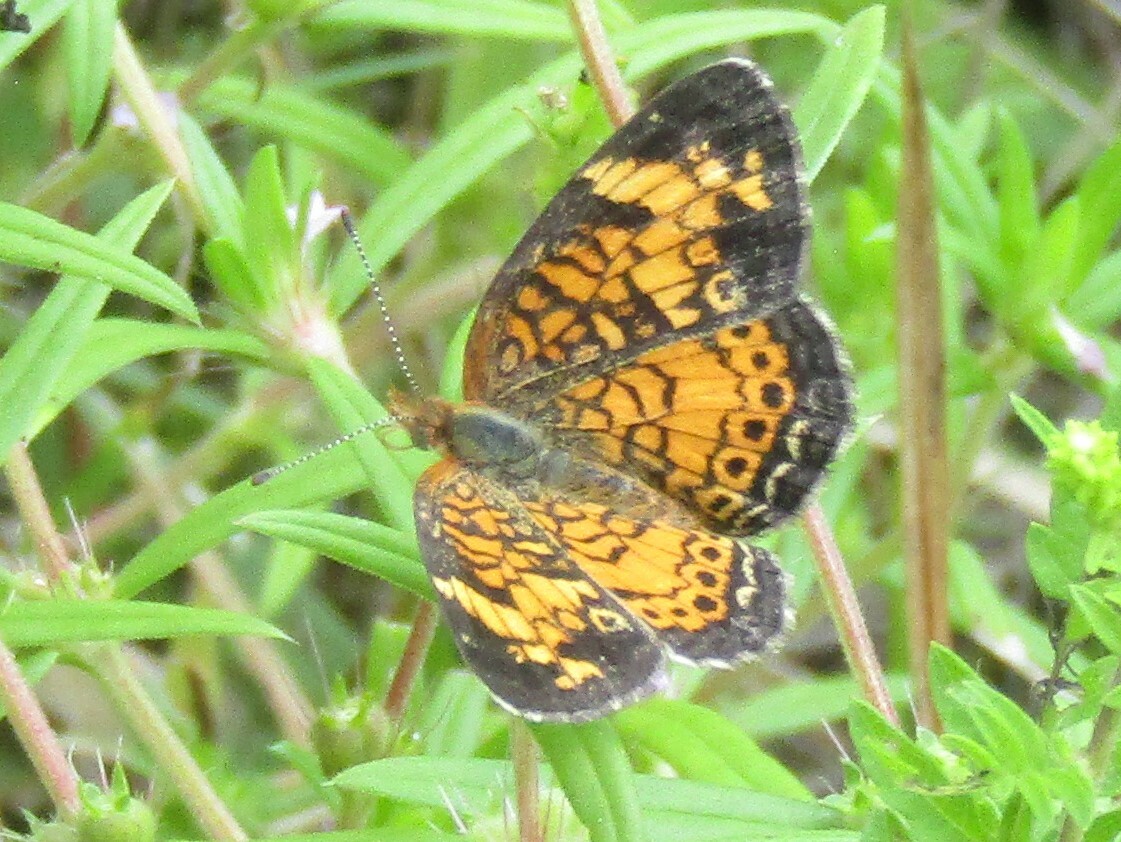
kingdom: Animalia
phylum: Arthropoda
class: Insecta
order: Lepidoptera
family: Nymphalidae
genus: Phyciodes
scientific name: Phyciodes tharos
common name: Pearl crescent
